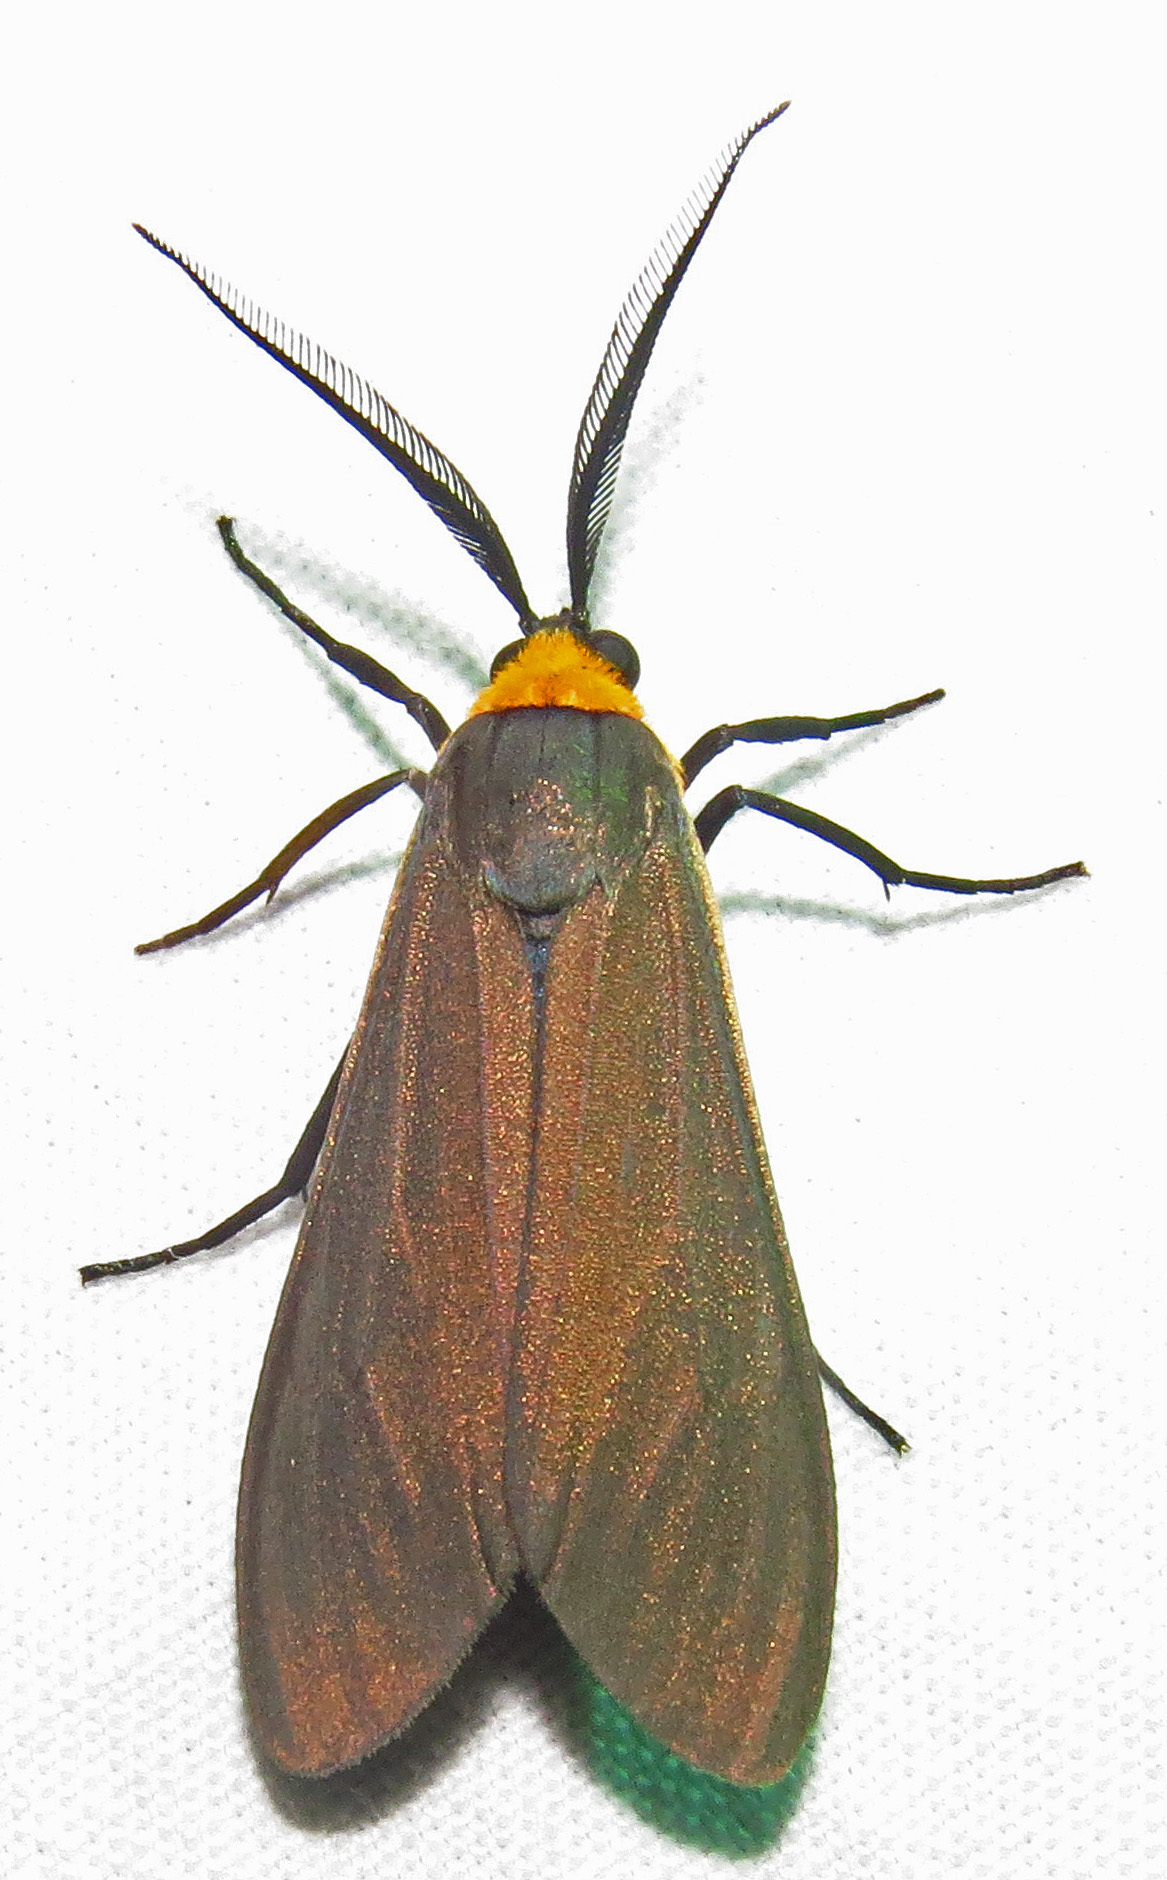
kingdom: Animalia
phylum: Arthropoda
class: Insecta
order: Lepidoptera
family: Erebidae
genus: Cisseps
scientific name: Cisseps fulvicollis
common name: Yellow-collared scape moth
